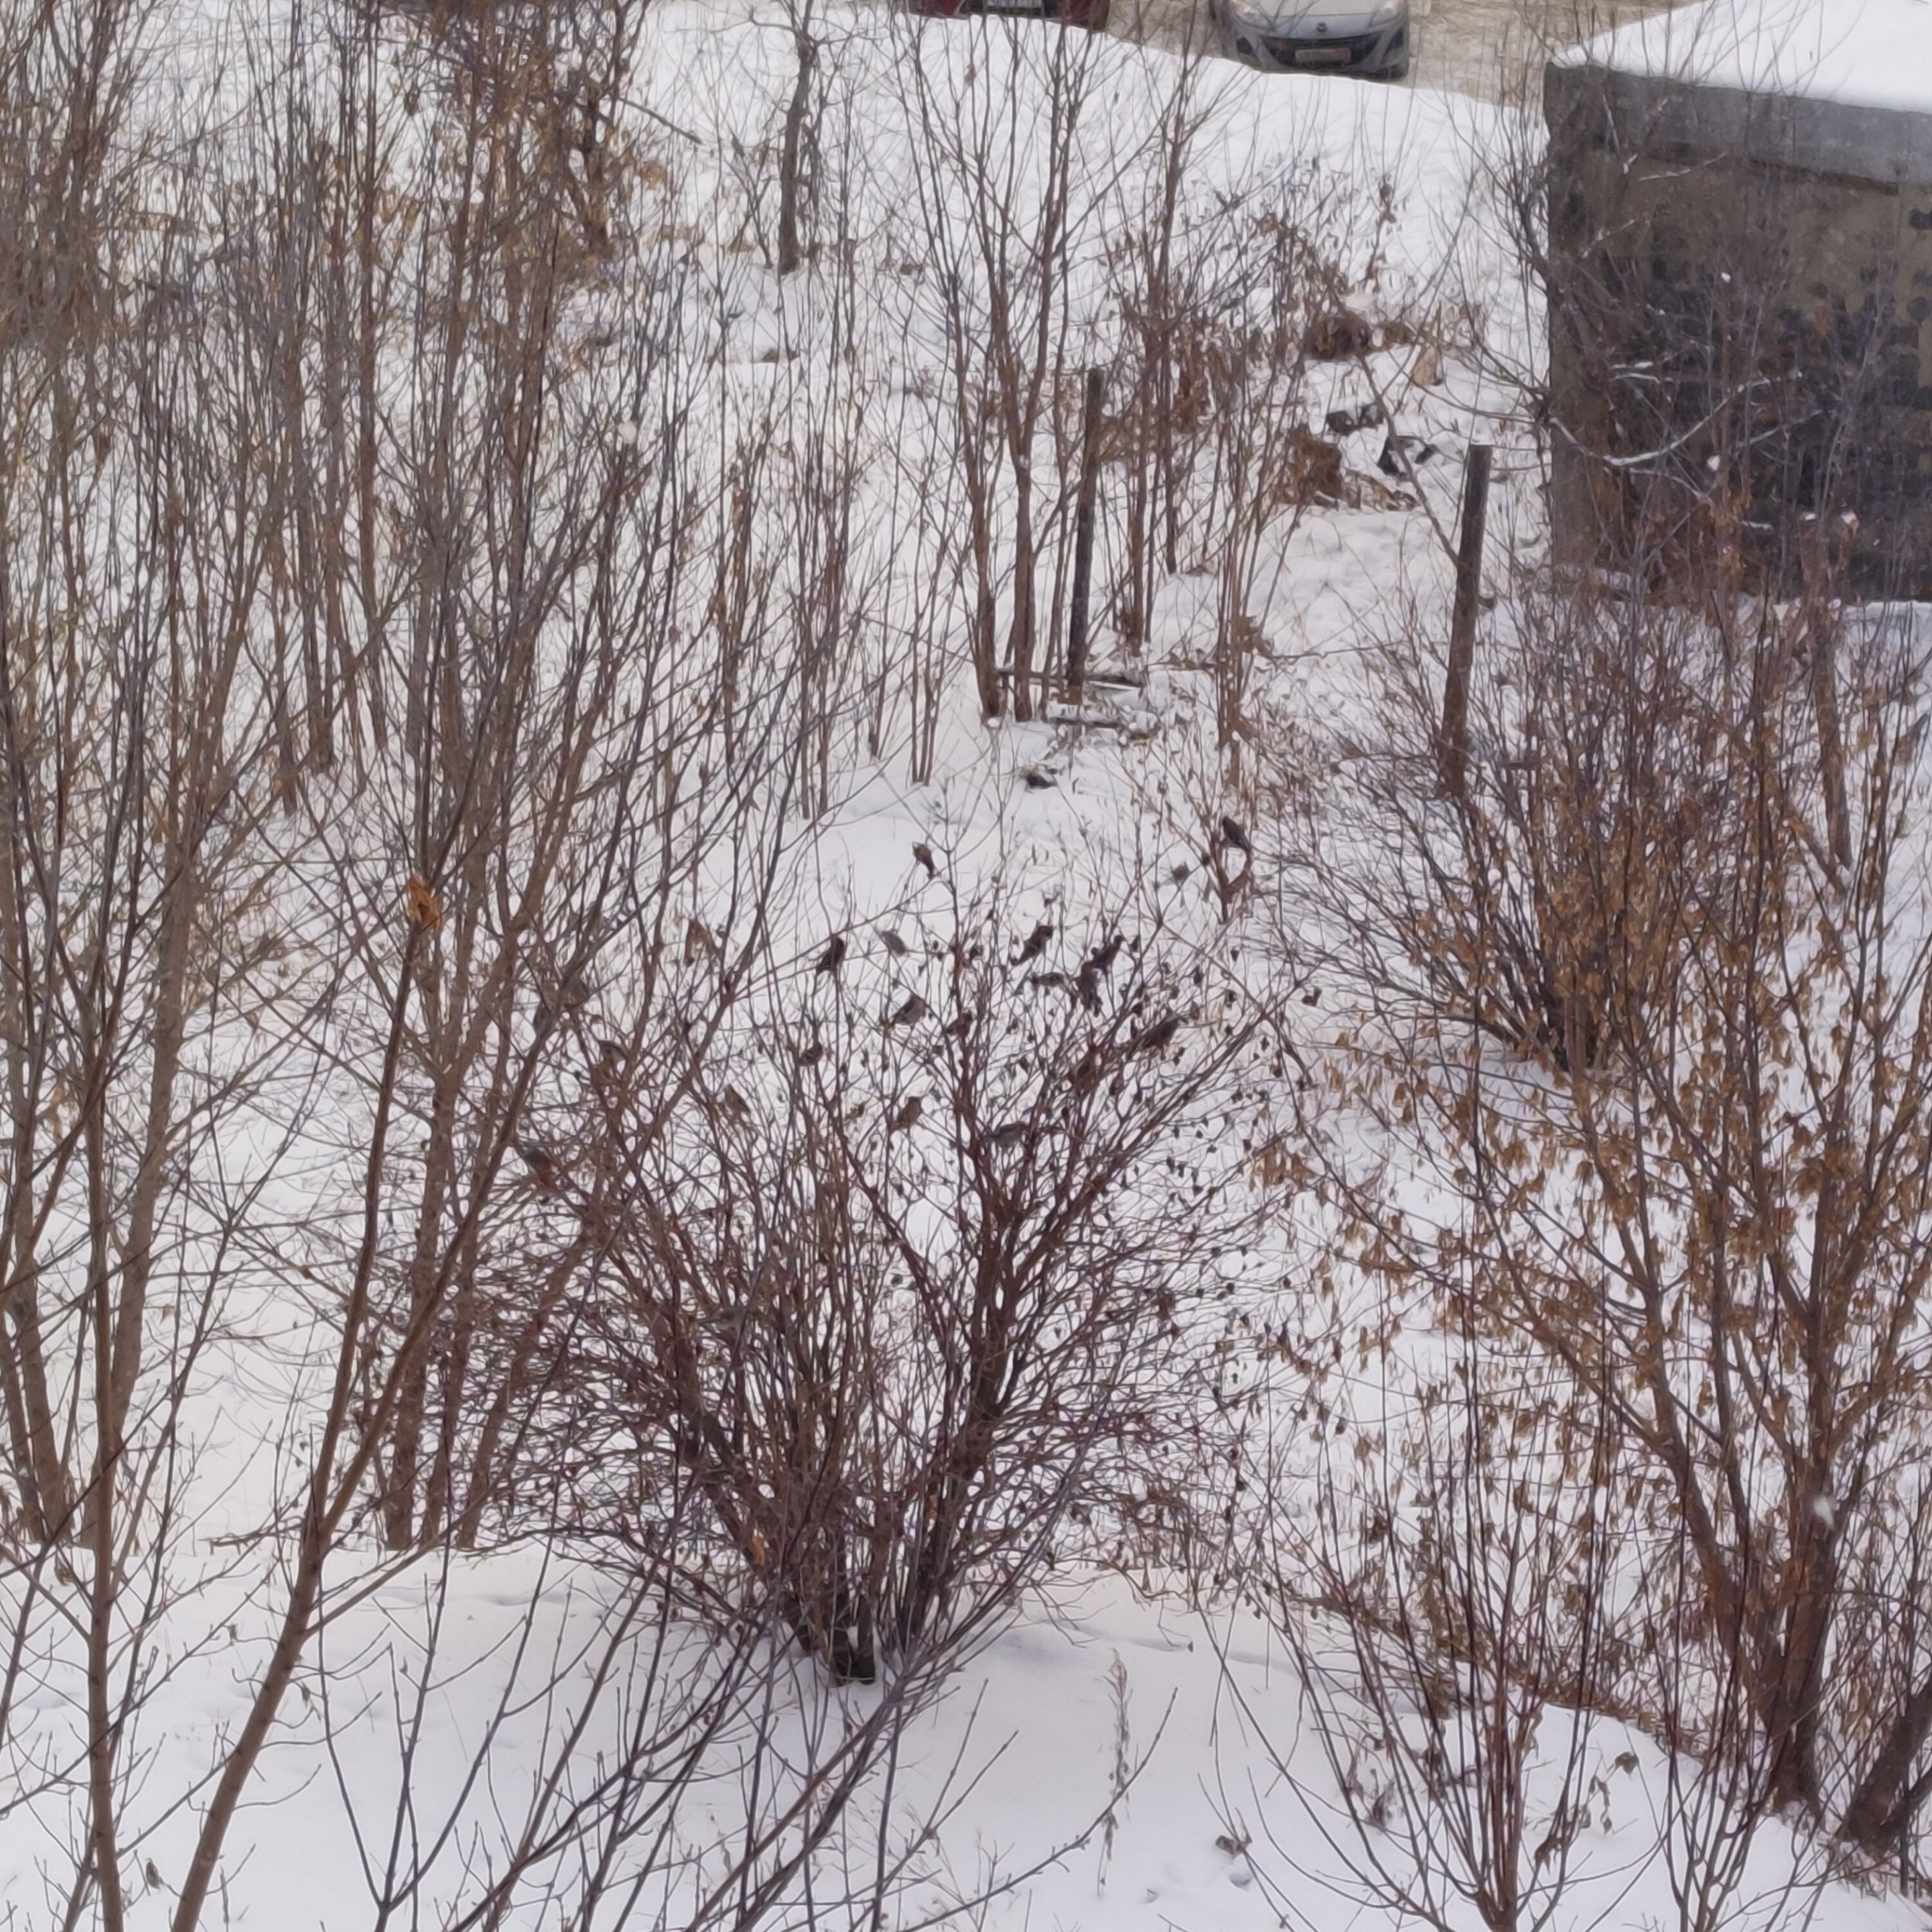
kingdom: Animalia
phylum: Chordata
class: Aves
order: Passeriformes
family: Bombycillidae
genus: Bombycilla
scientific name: Bombycilla garrulus
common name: Bohemian waxwing
